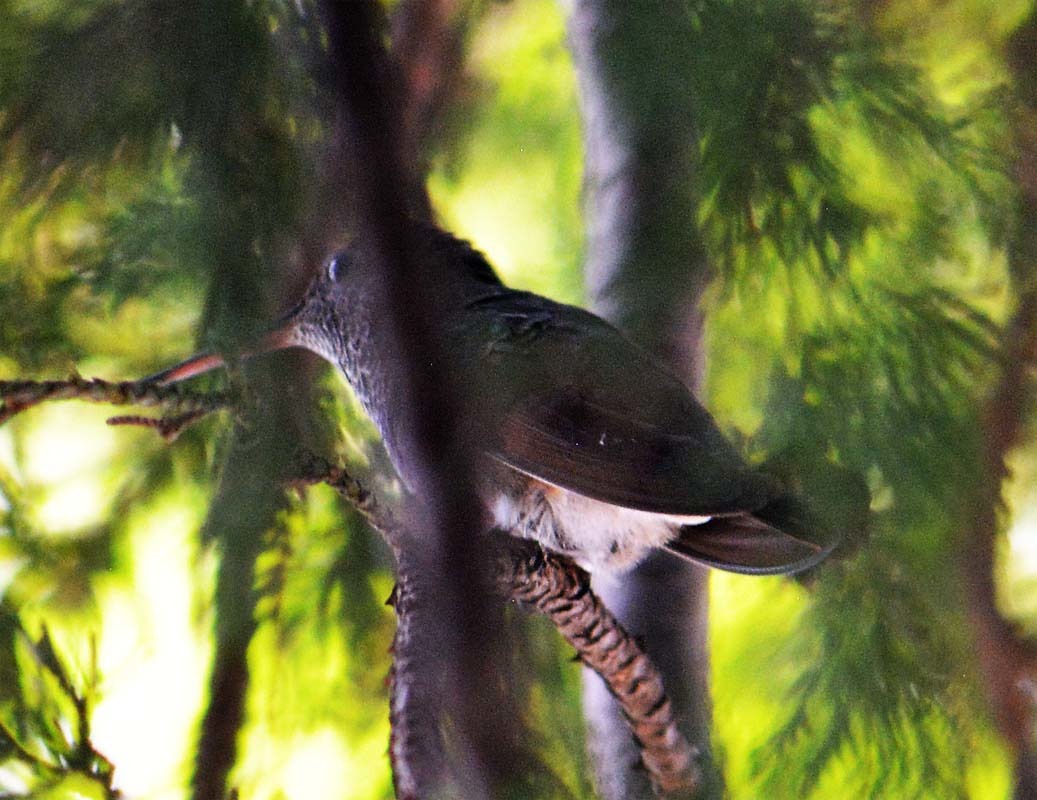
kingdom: Animalia
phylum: Chordata
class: Aves
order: Apodiformes
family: Trochilidae
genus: Cynanthus
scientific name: Cynanthus latirostris
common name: Broad-billed hummingbird
